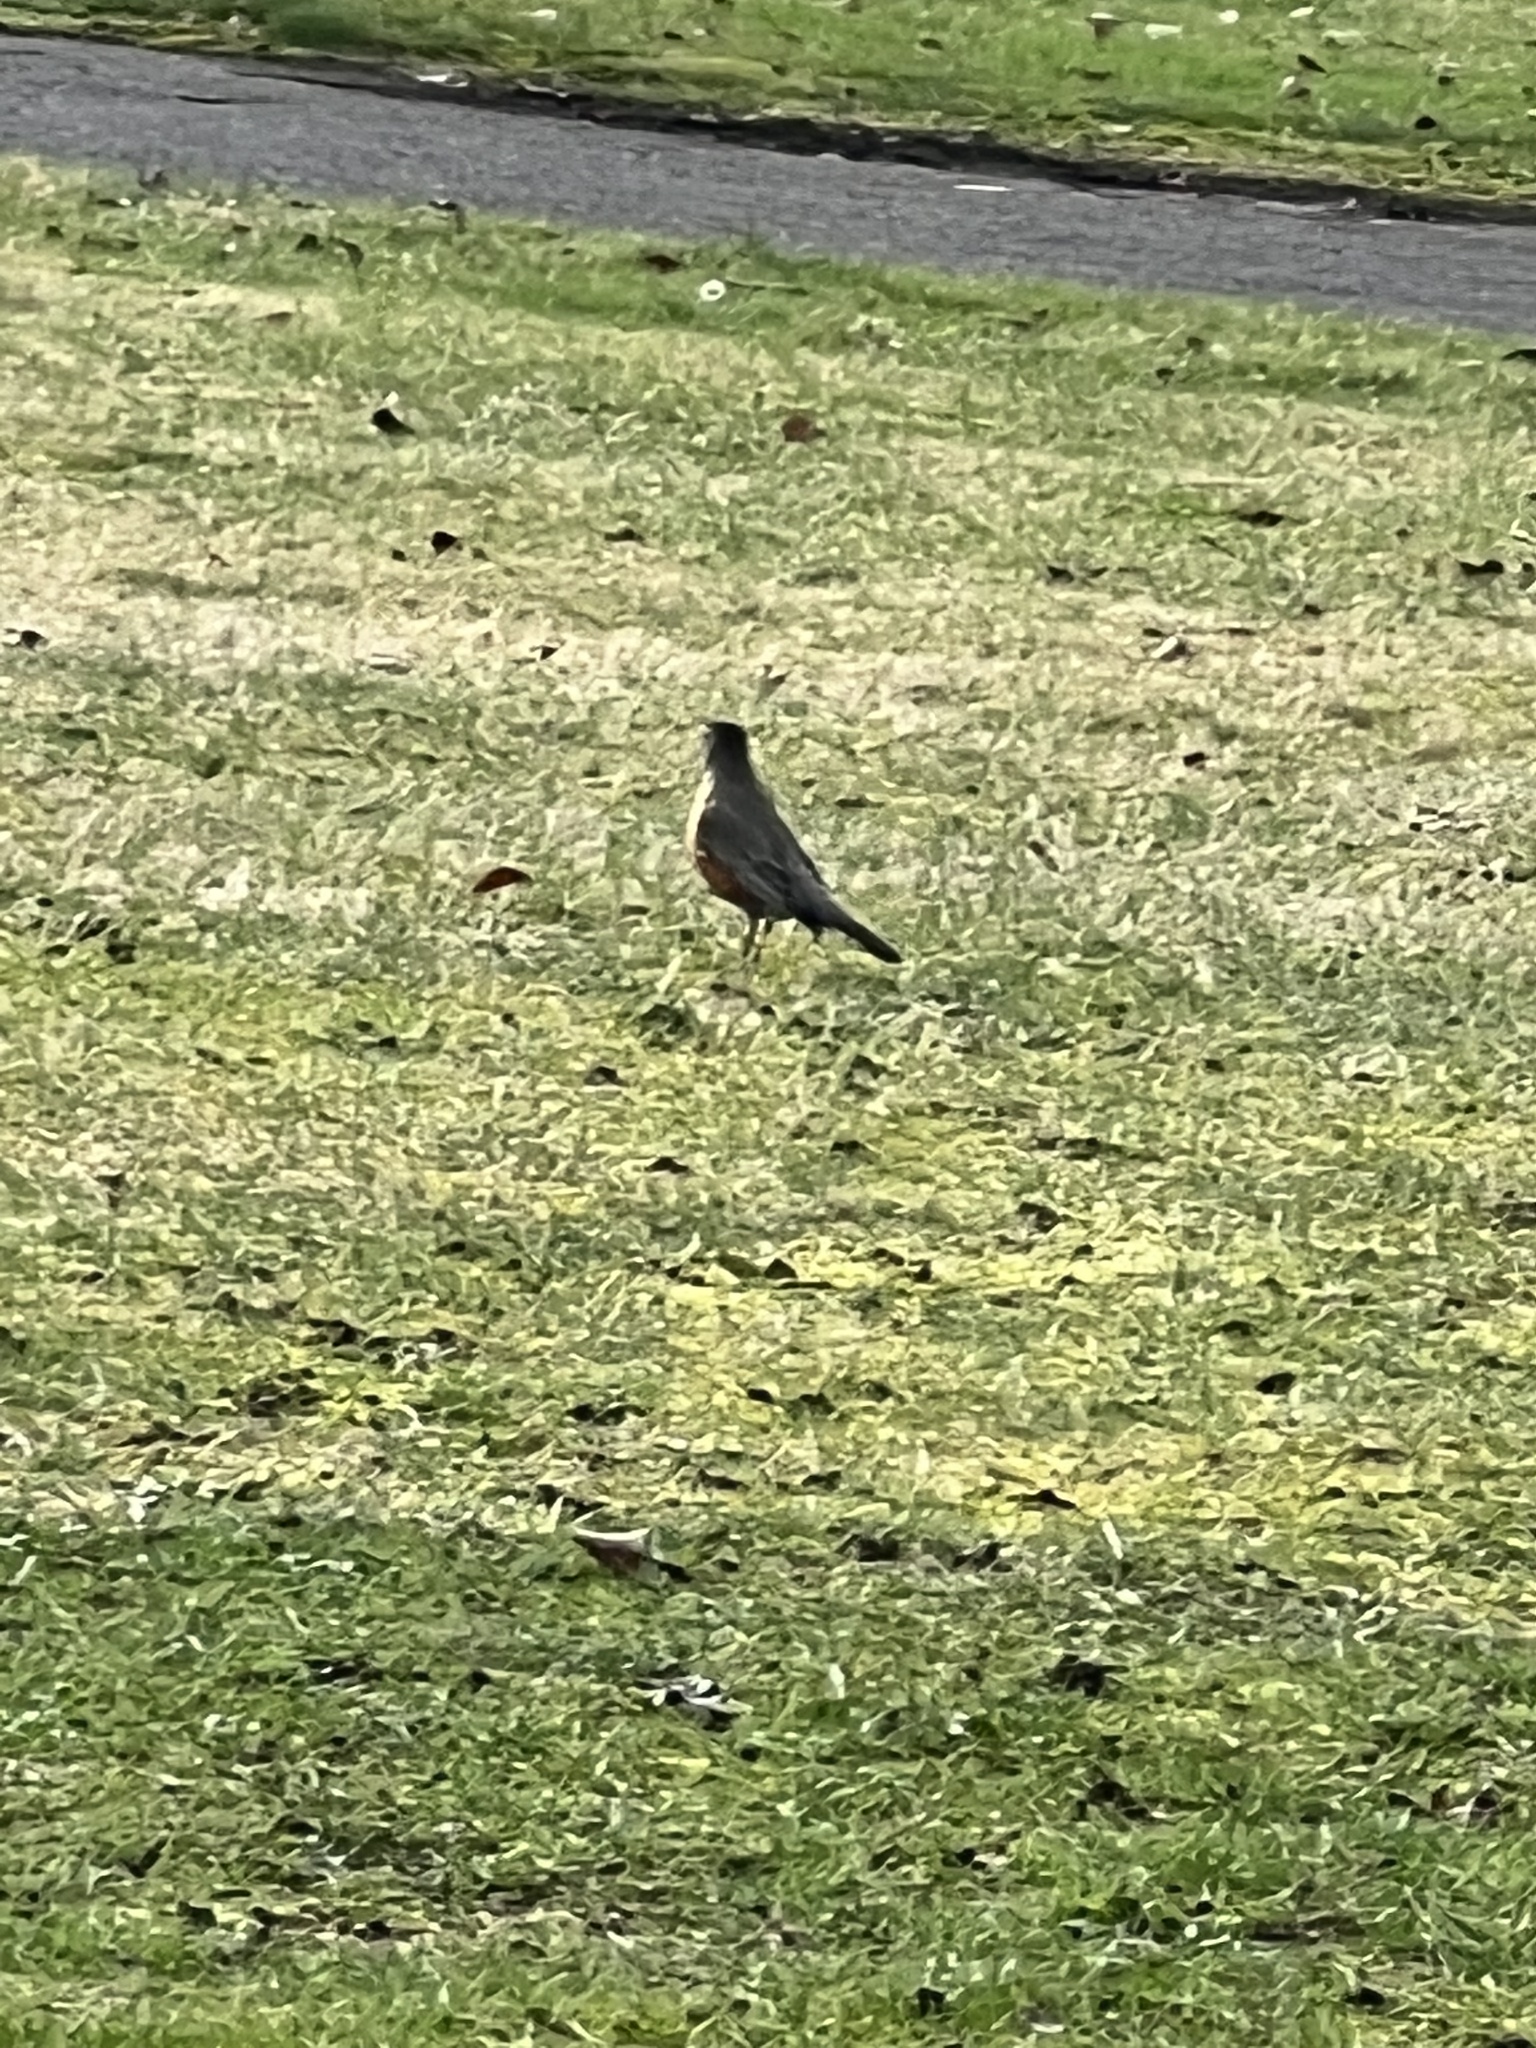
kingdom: Animalia
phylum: Chordata
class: Aves
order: Passeriformes
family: Turdidae
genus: Turdus
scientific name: Turdus migratorius
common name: American robin
